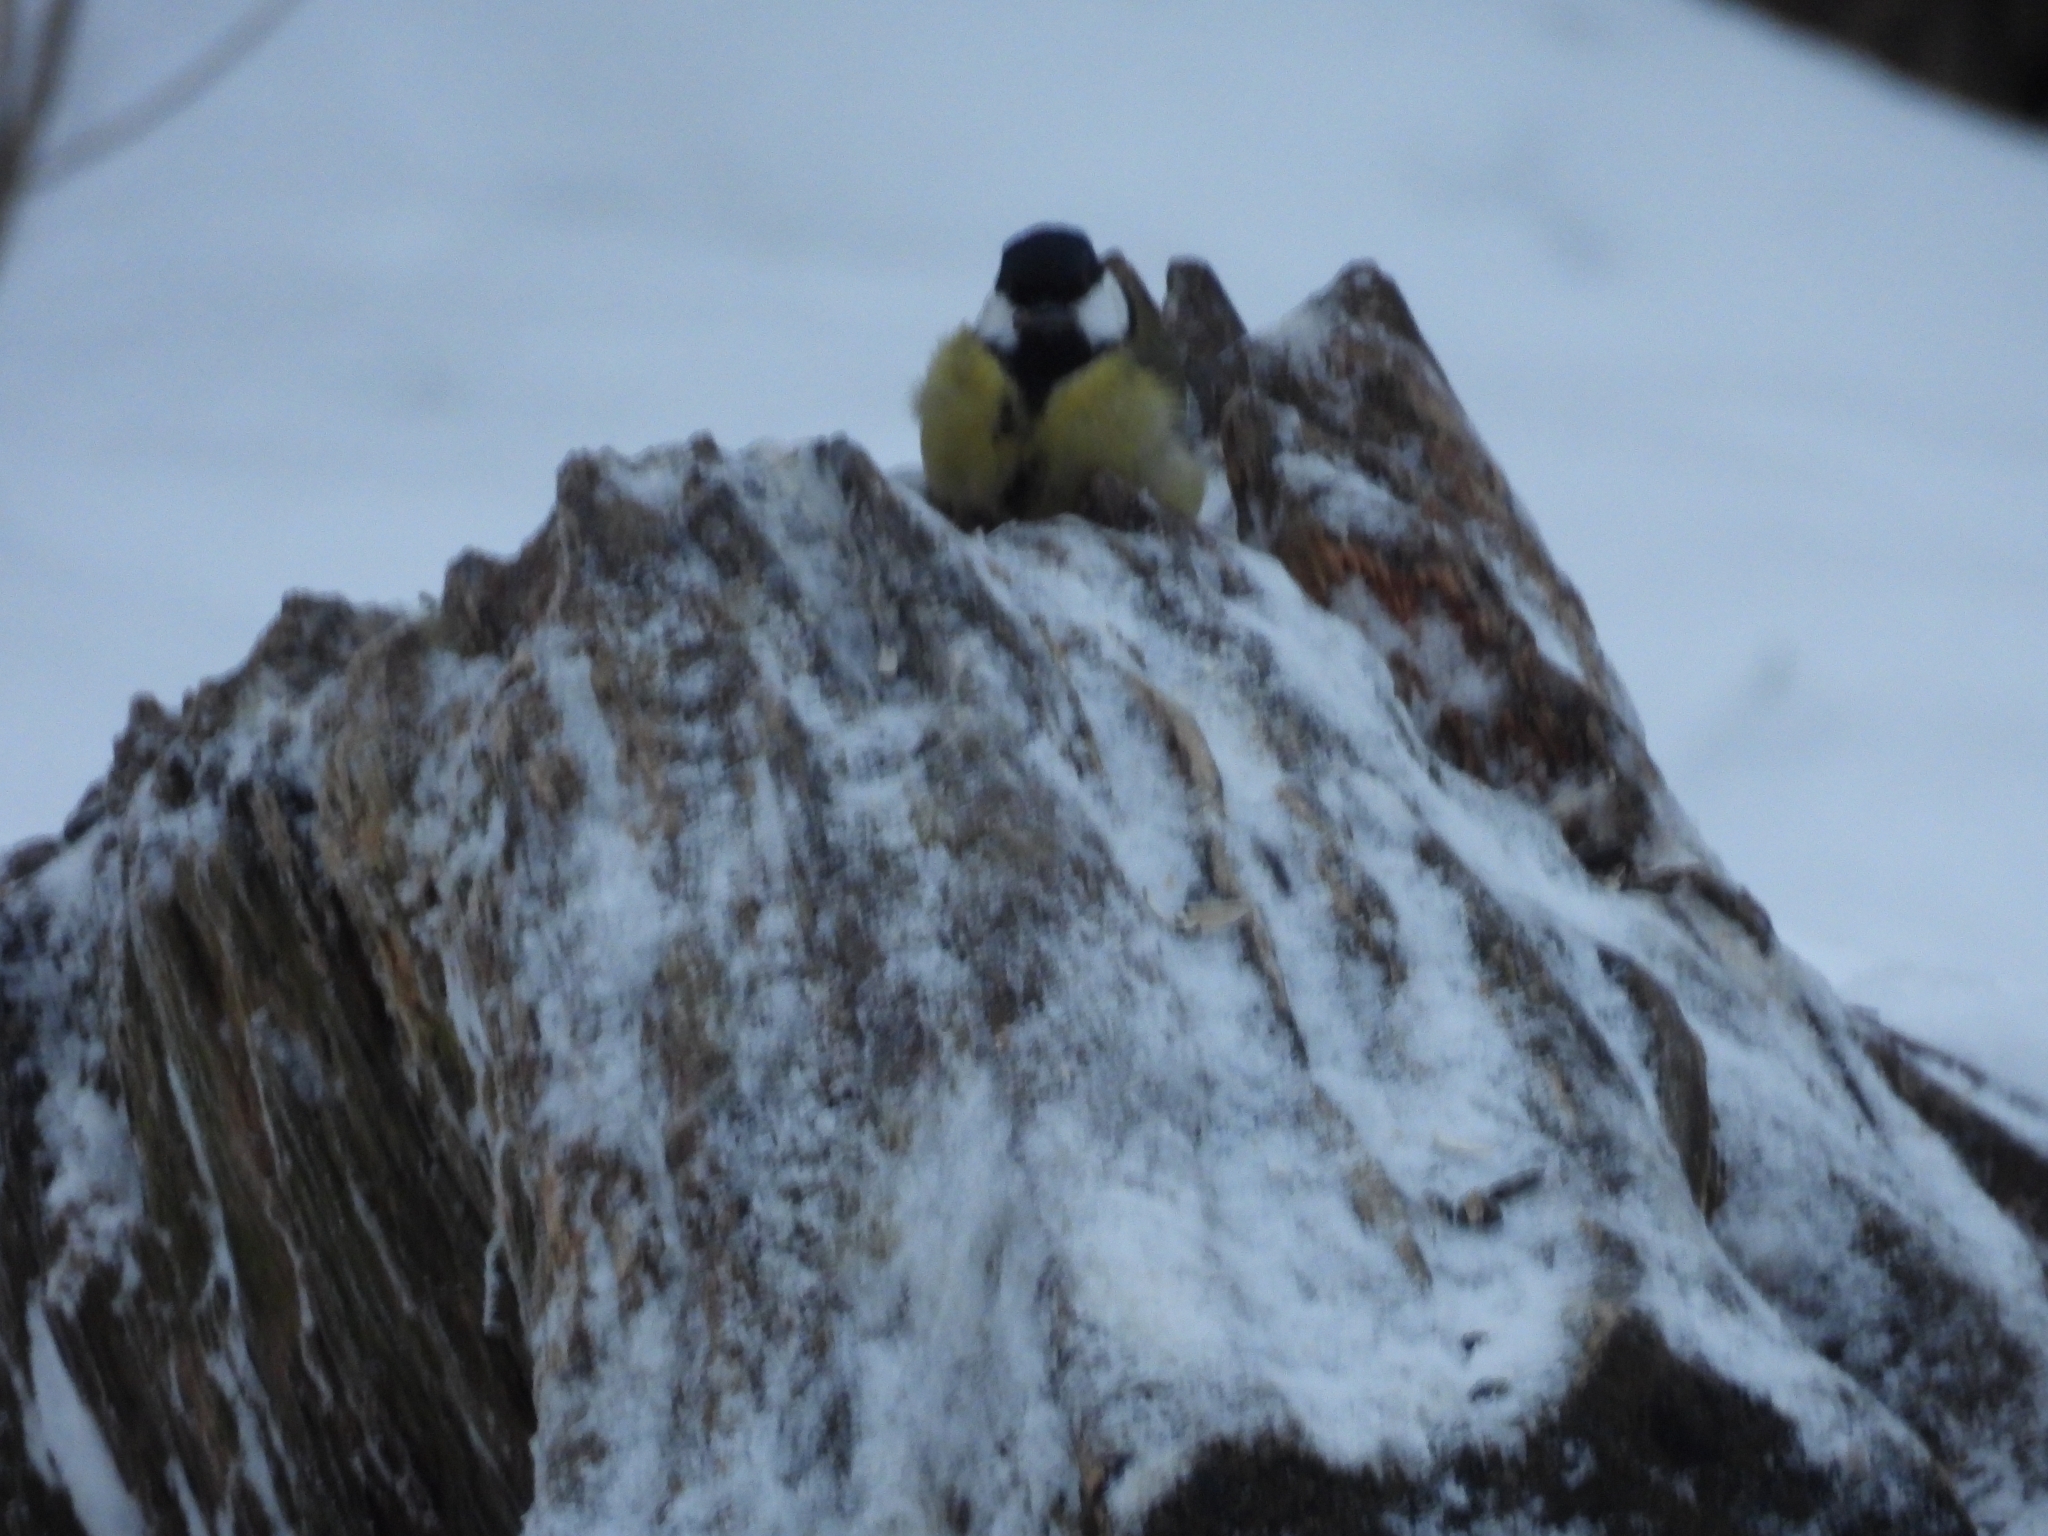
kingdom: Animalia
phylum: Chordata
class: Aves
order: Passeriformes
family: Paridae
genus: Parus
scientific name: Parus major
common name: Great tit
